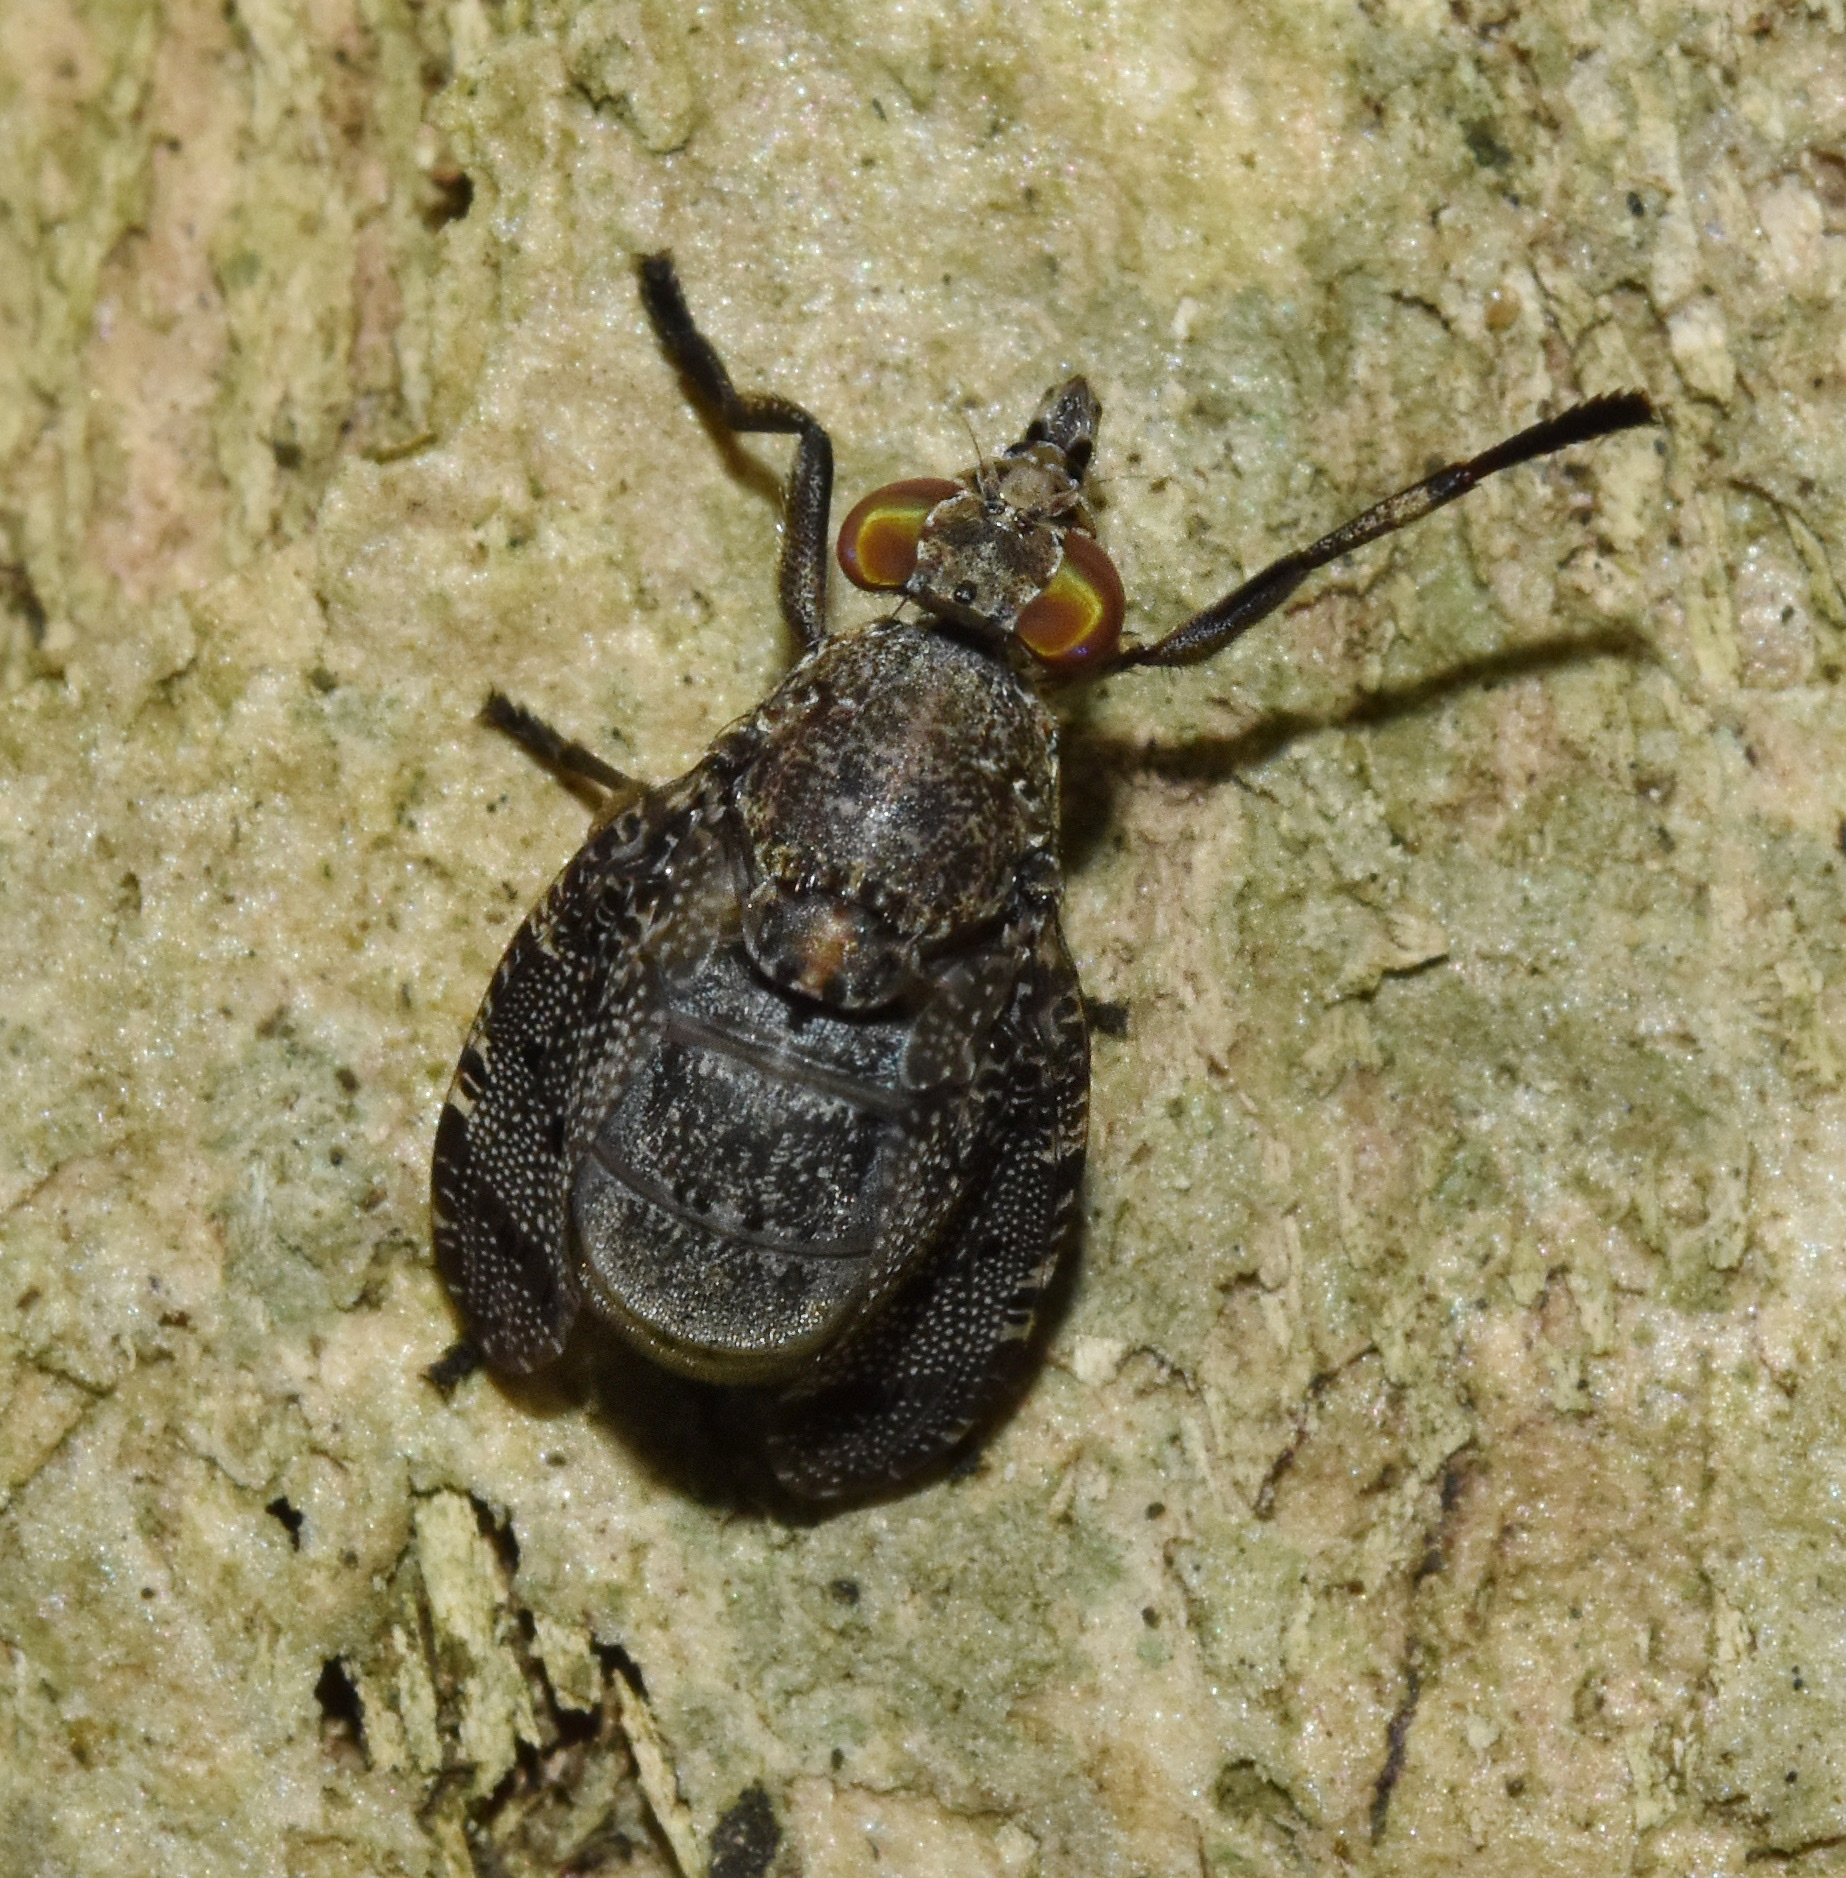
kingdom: Animalia
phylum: Arthropoda
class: Insecta
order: Diptera
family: Platystomatidae
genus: Lophoplatystoma
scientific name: Lophoplatystoma acarigerum
